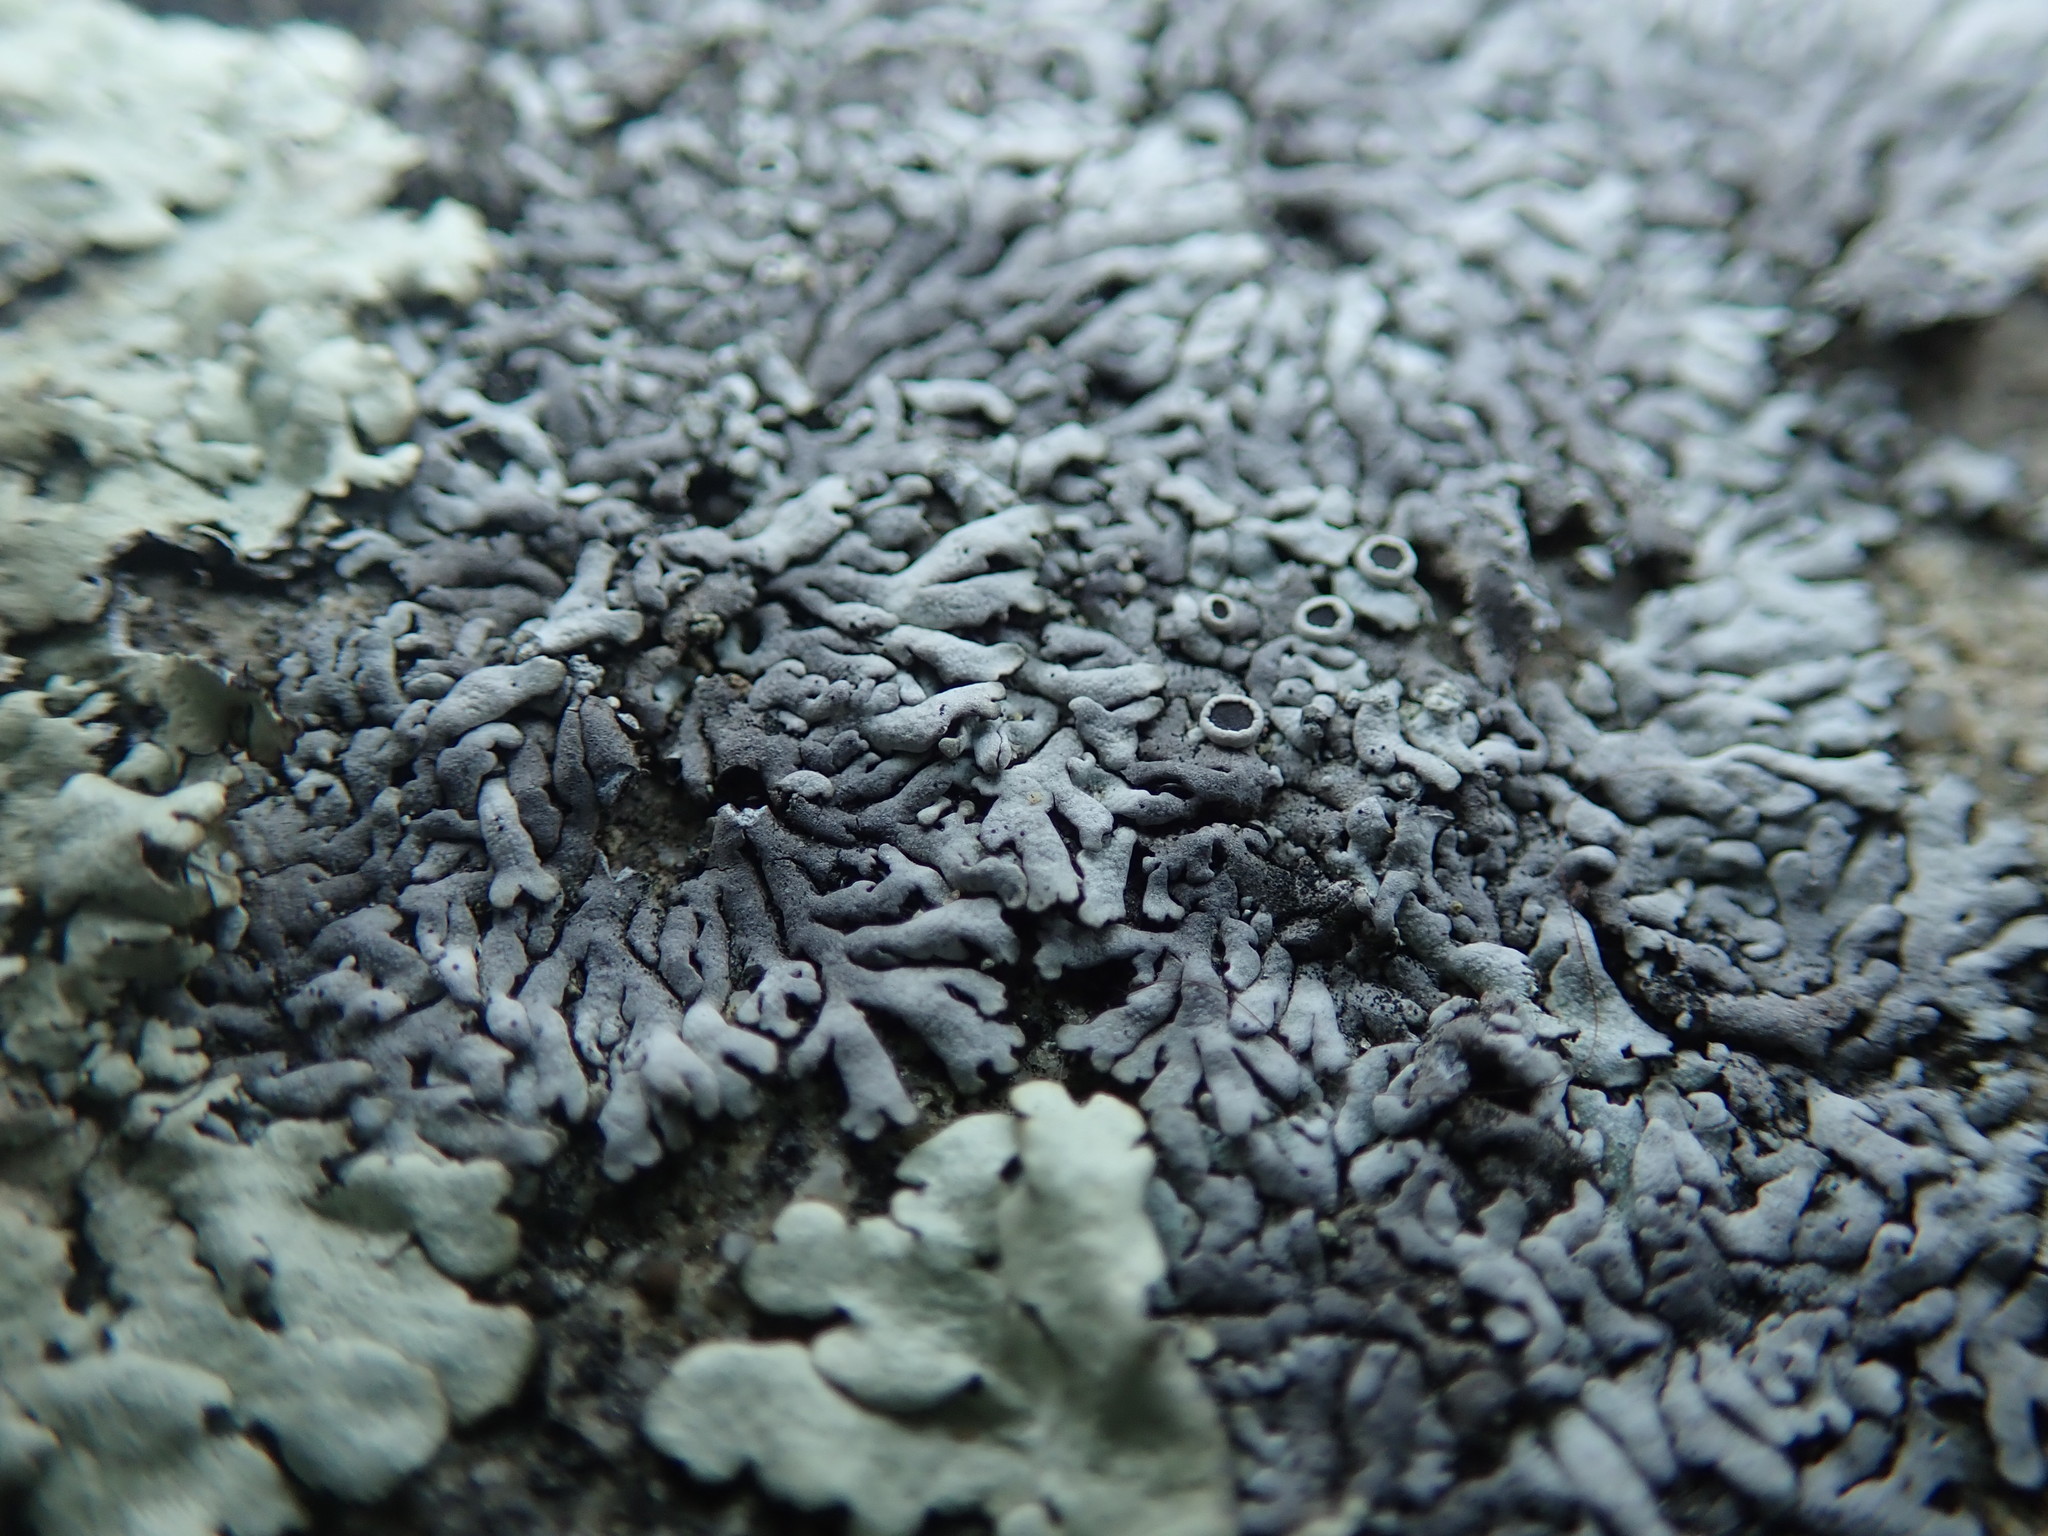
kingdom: Fungi
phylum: Ascomycota
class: Lecanoromycetes
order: Caliciales
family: Physciaceae
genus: Physcia
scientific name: Physcia phaea
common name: Black-eyed rosette lichen
